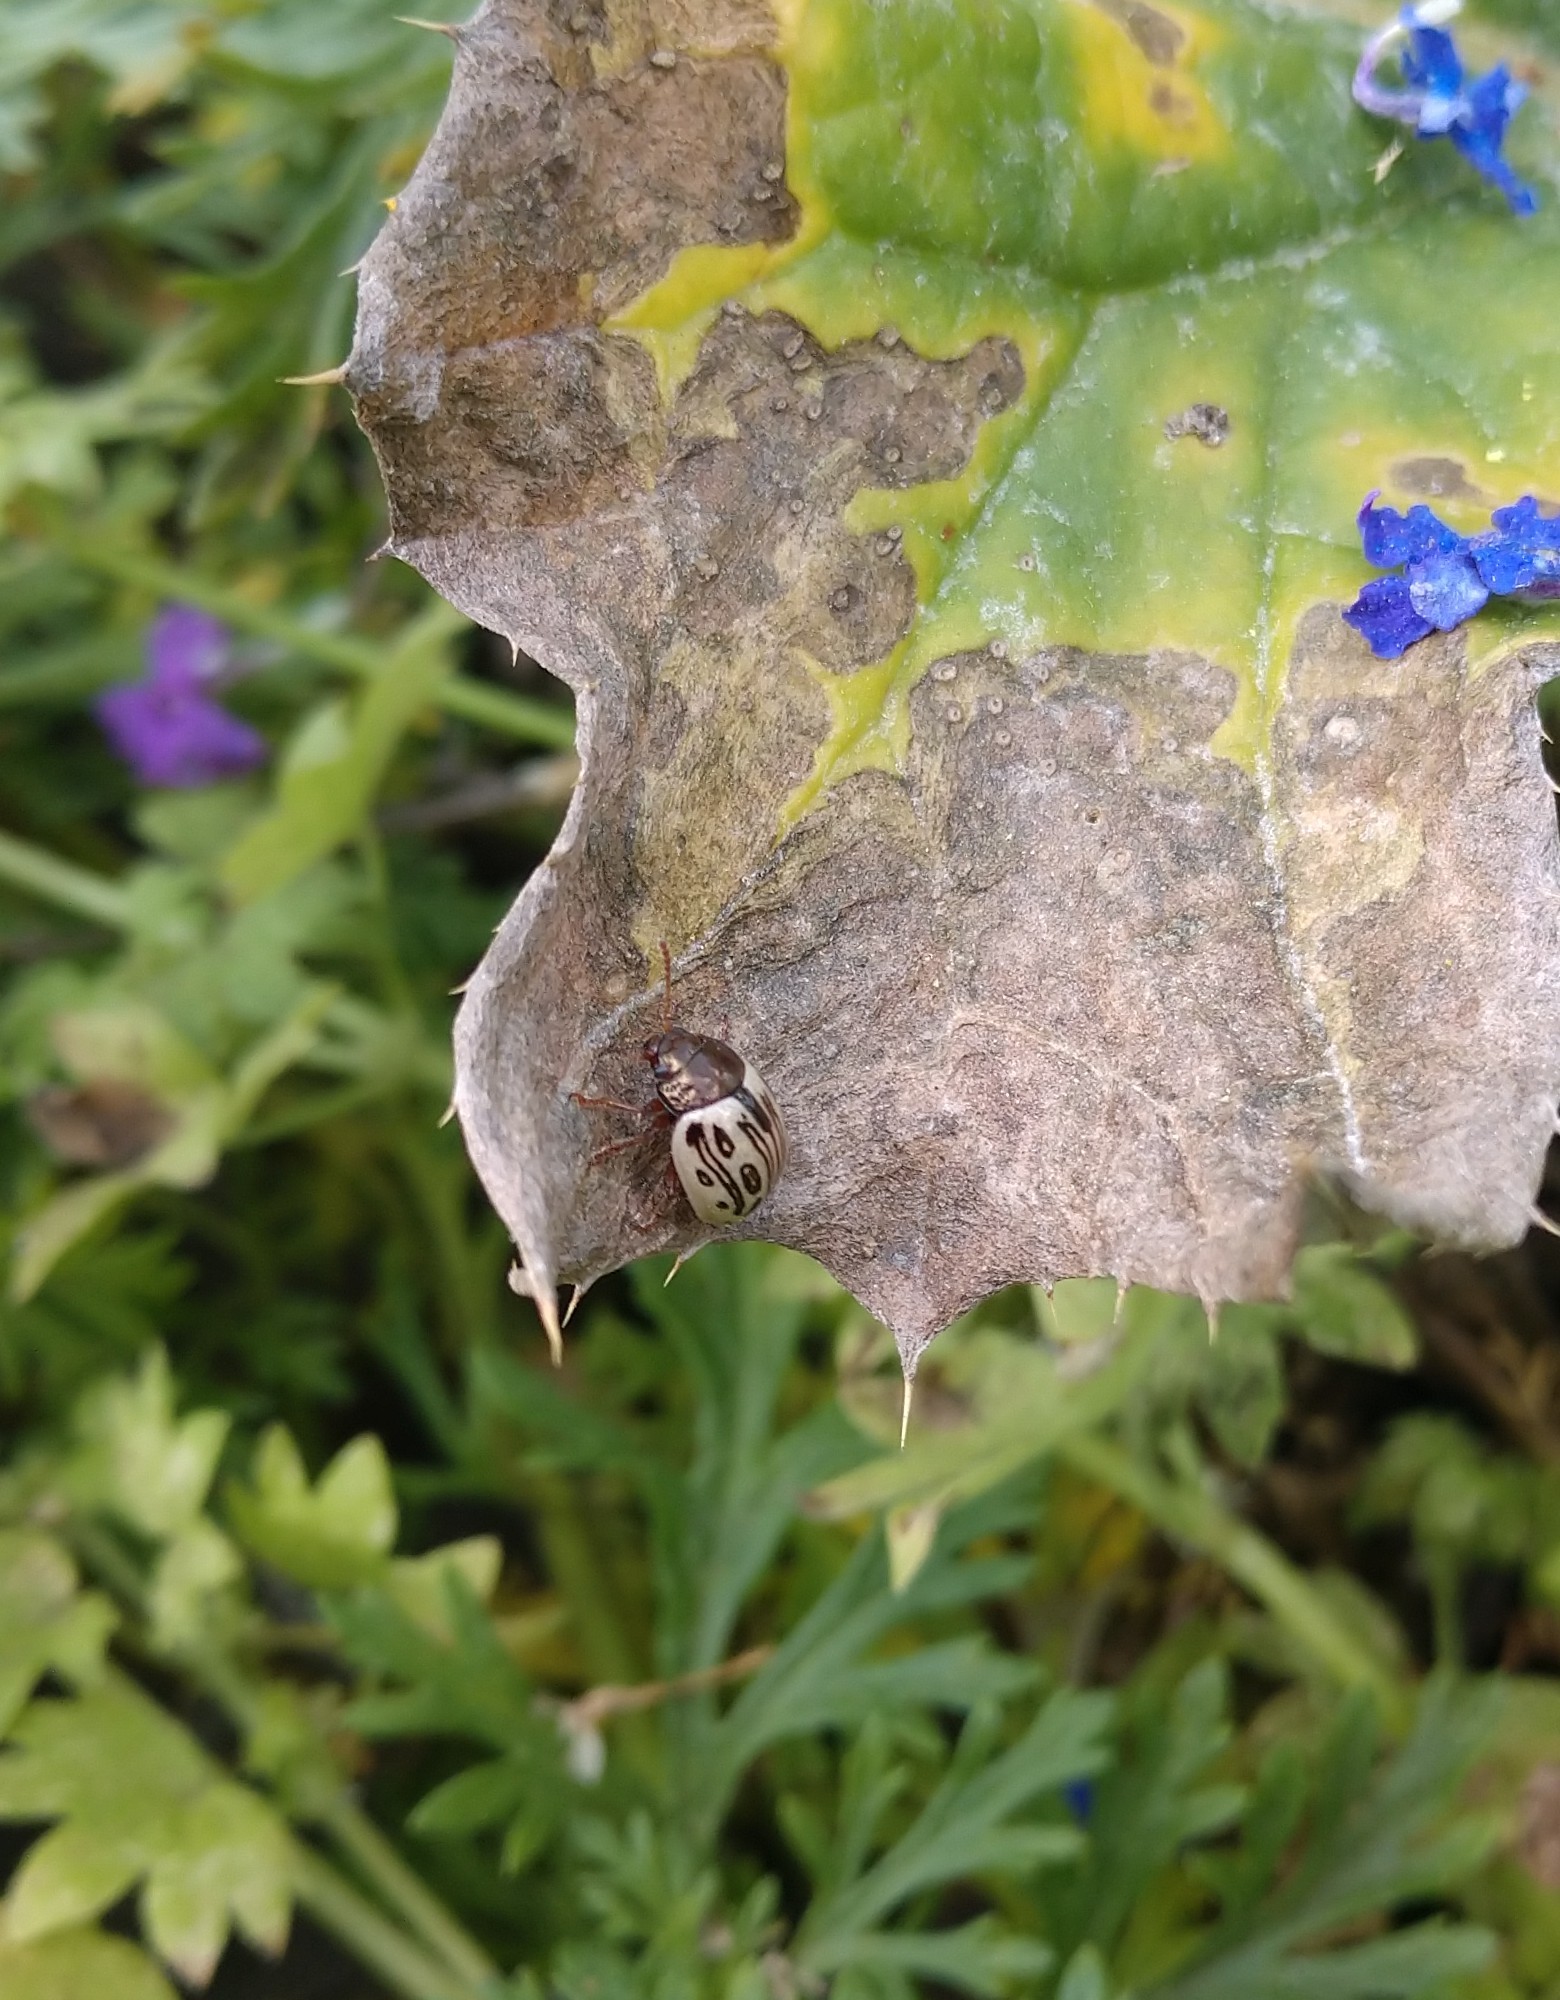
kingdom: Animalia
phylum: Arthropoda
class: Insecta
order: Coleoptera
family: Chrysomelidae
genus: Calligrapha
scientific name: Calligrapha
